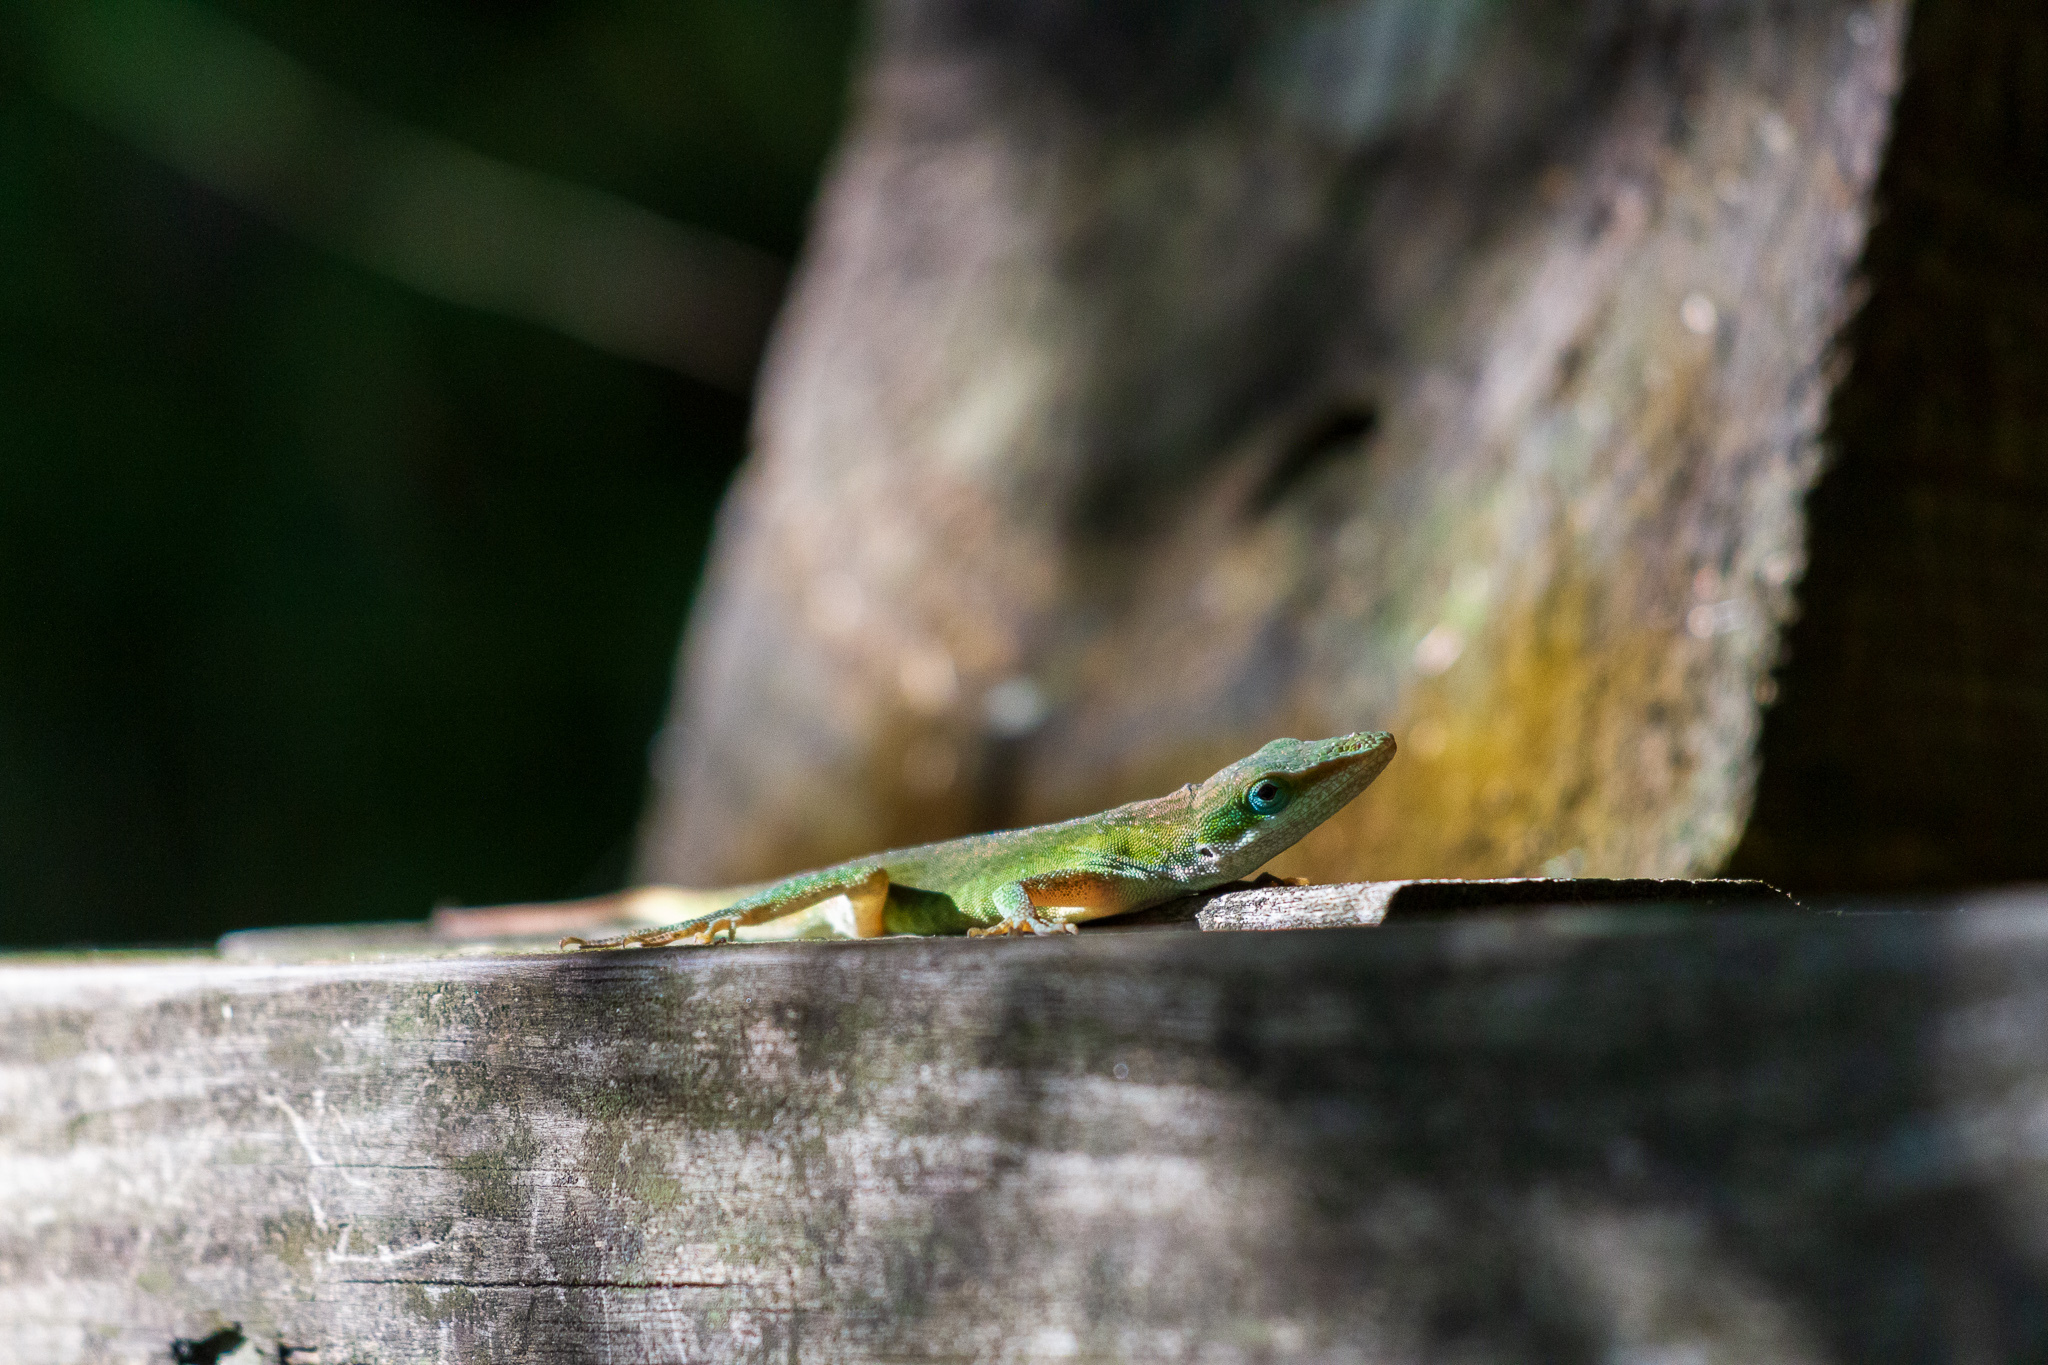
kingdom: Animalia
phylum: Chordata
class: Squamata
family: Dactyloidae
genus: Anolis
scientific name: Anolis carolinensis
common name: Green anole
